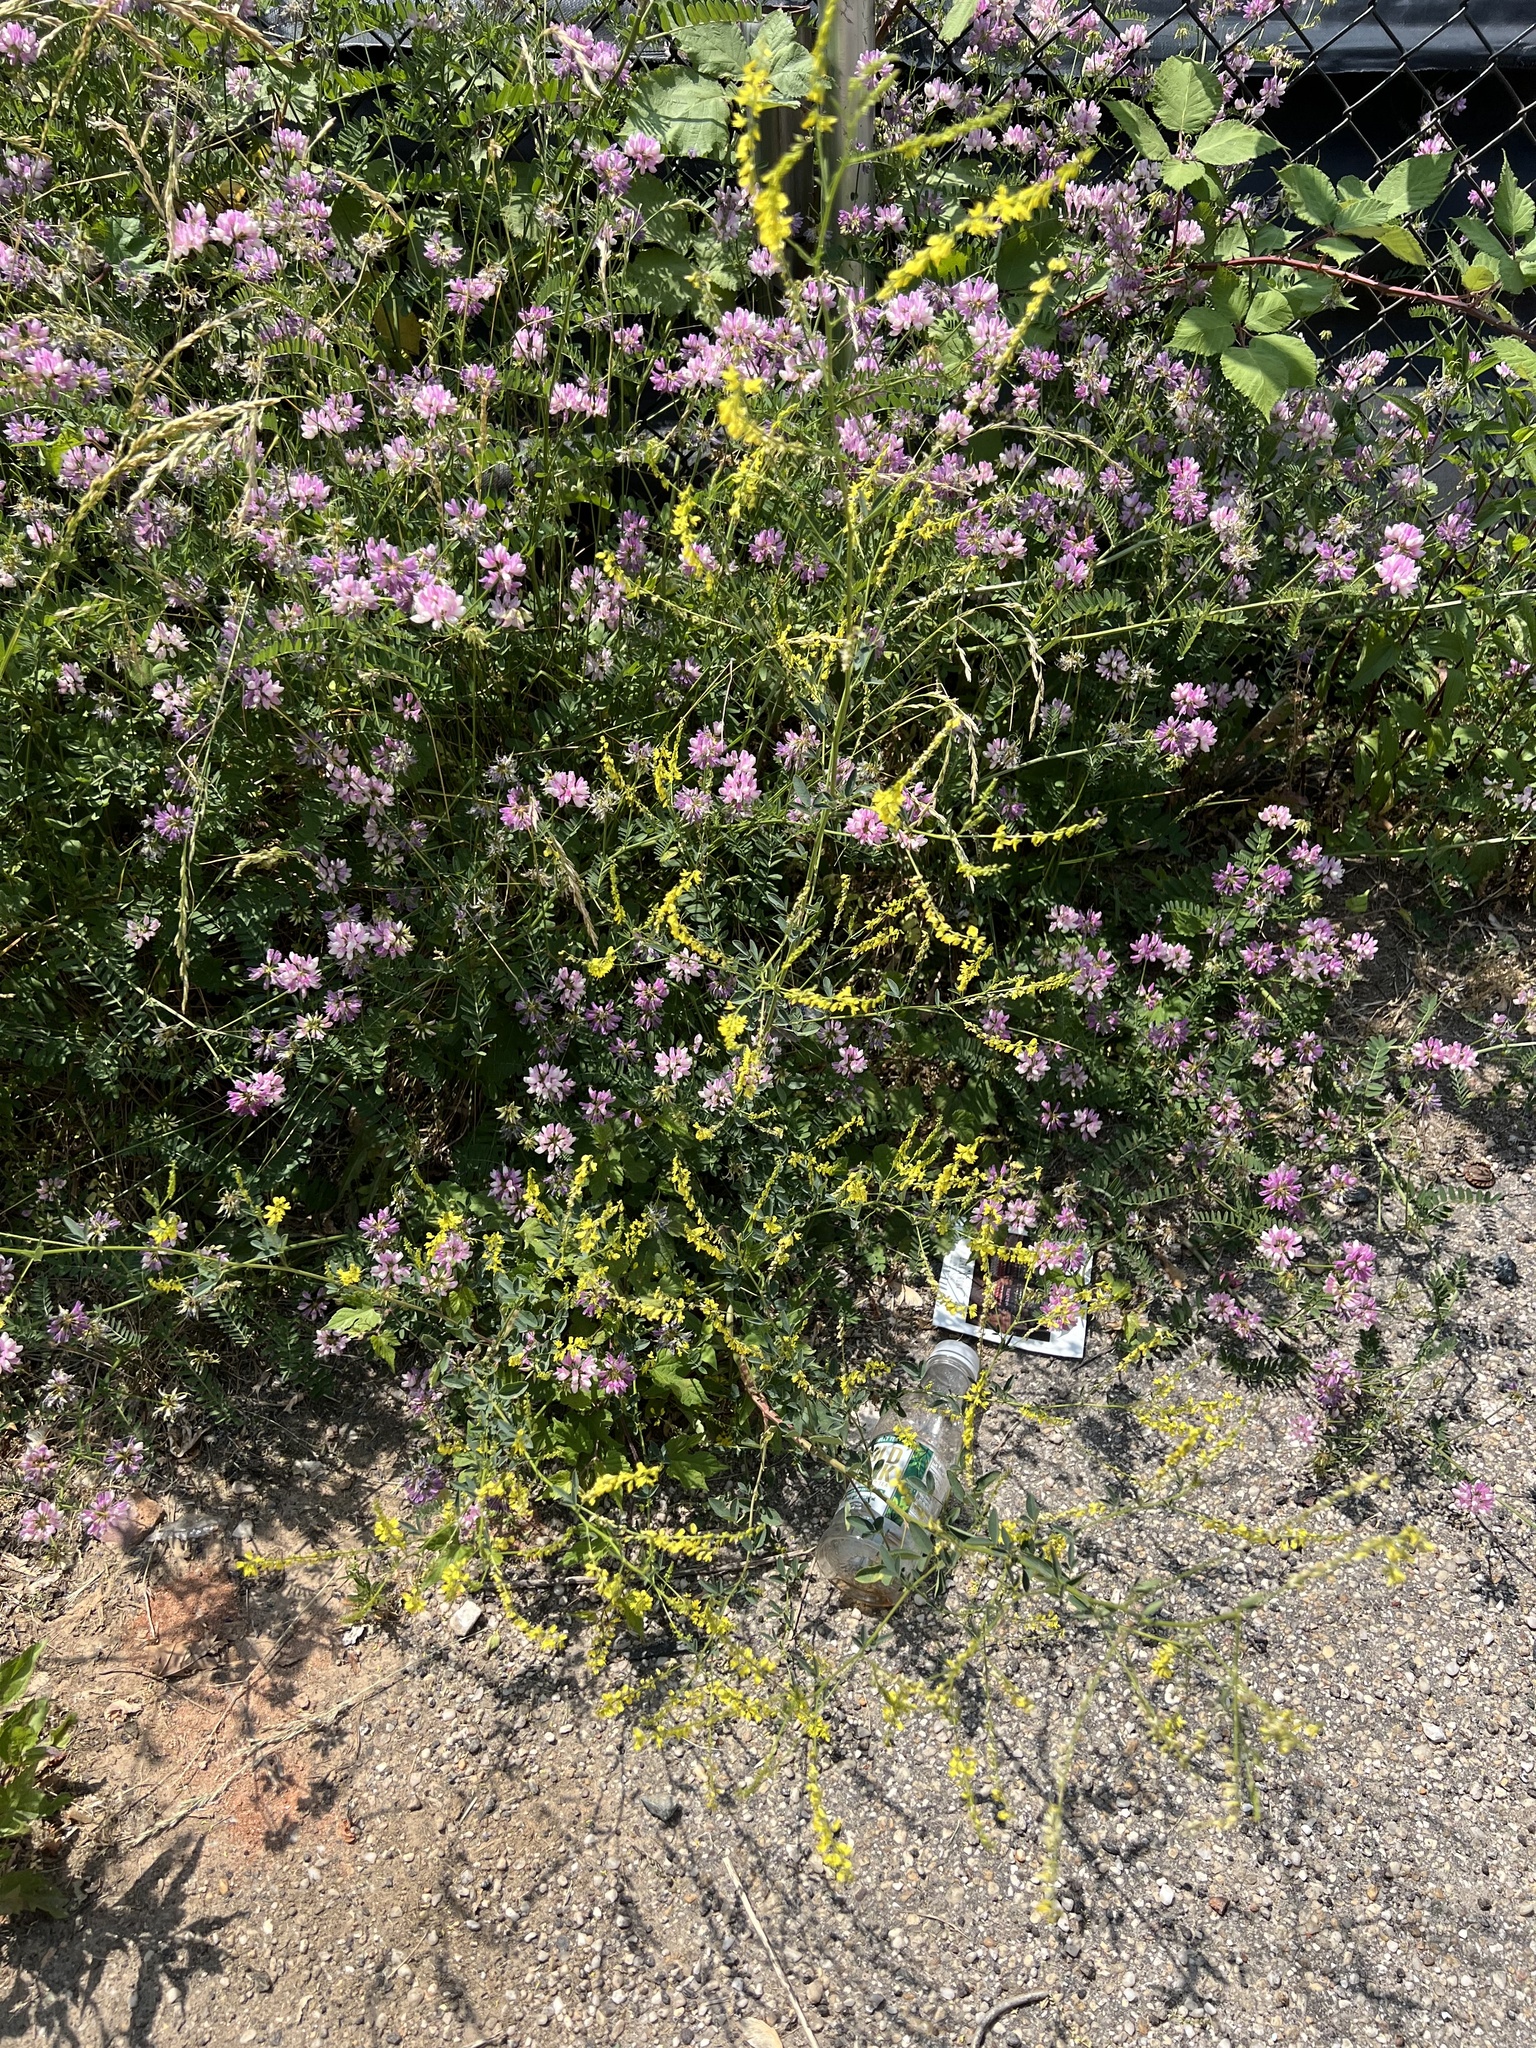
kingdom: Plantae
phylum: Tracheophyta
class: Magnoliopsida
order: Fabales
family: Fabaceae
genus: Melilotus
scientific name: Melilotus officinalis
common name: Sweetclover
